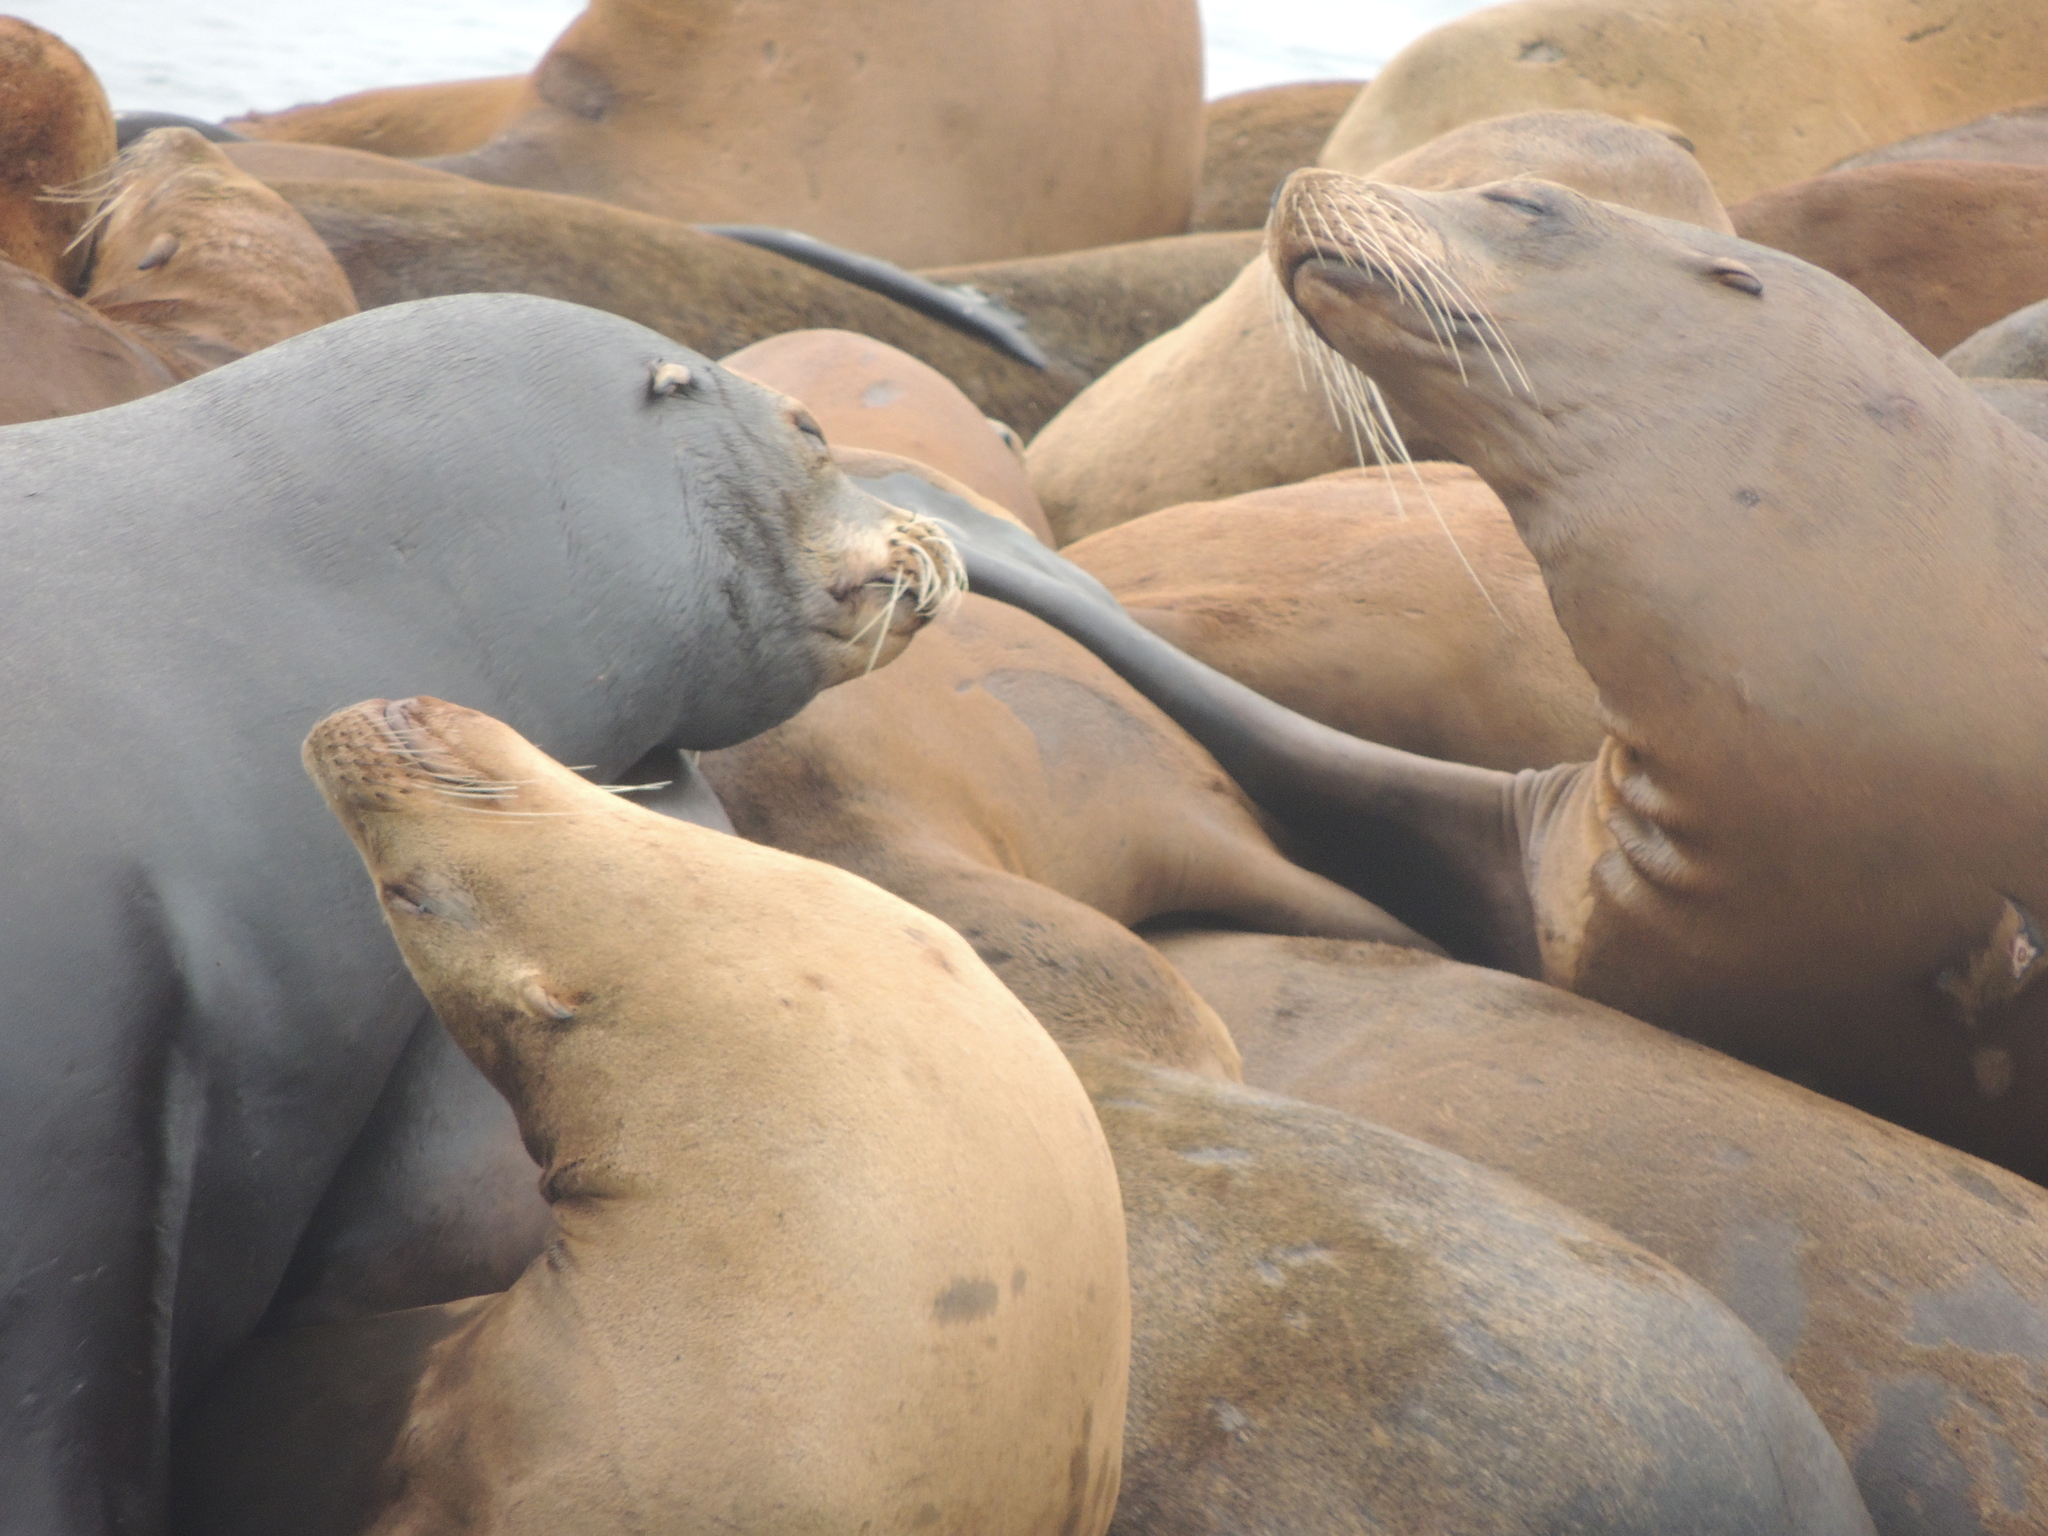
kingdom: Animalia
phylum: Chordata
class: Mammalia
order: Carnivora
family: Otariidae
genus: Zalophus
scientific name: Zalophus californianus
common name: California sea lion
